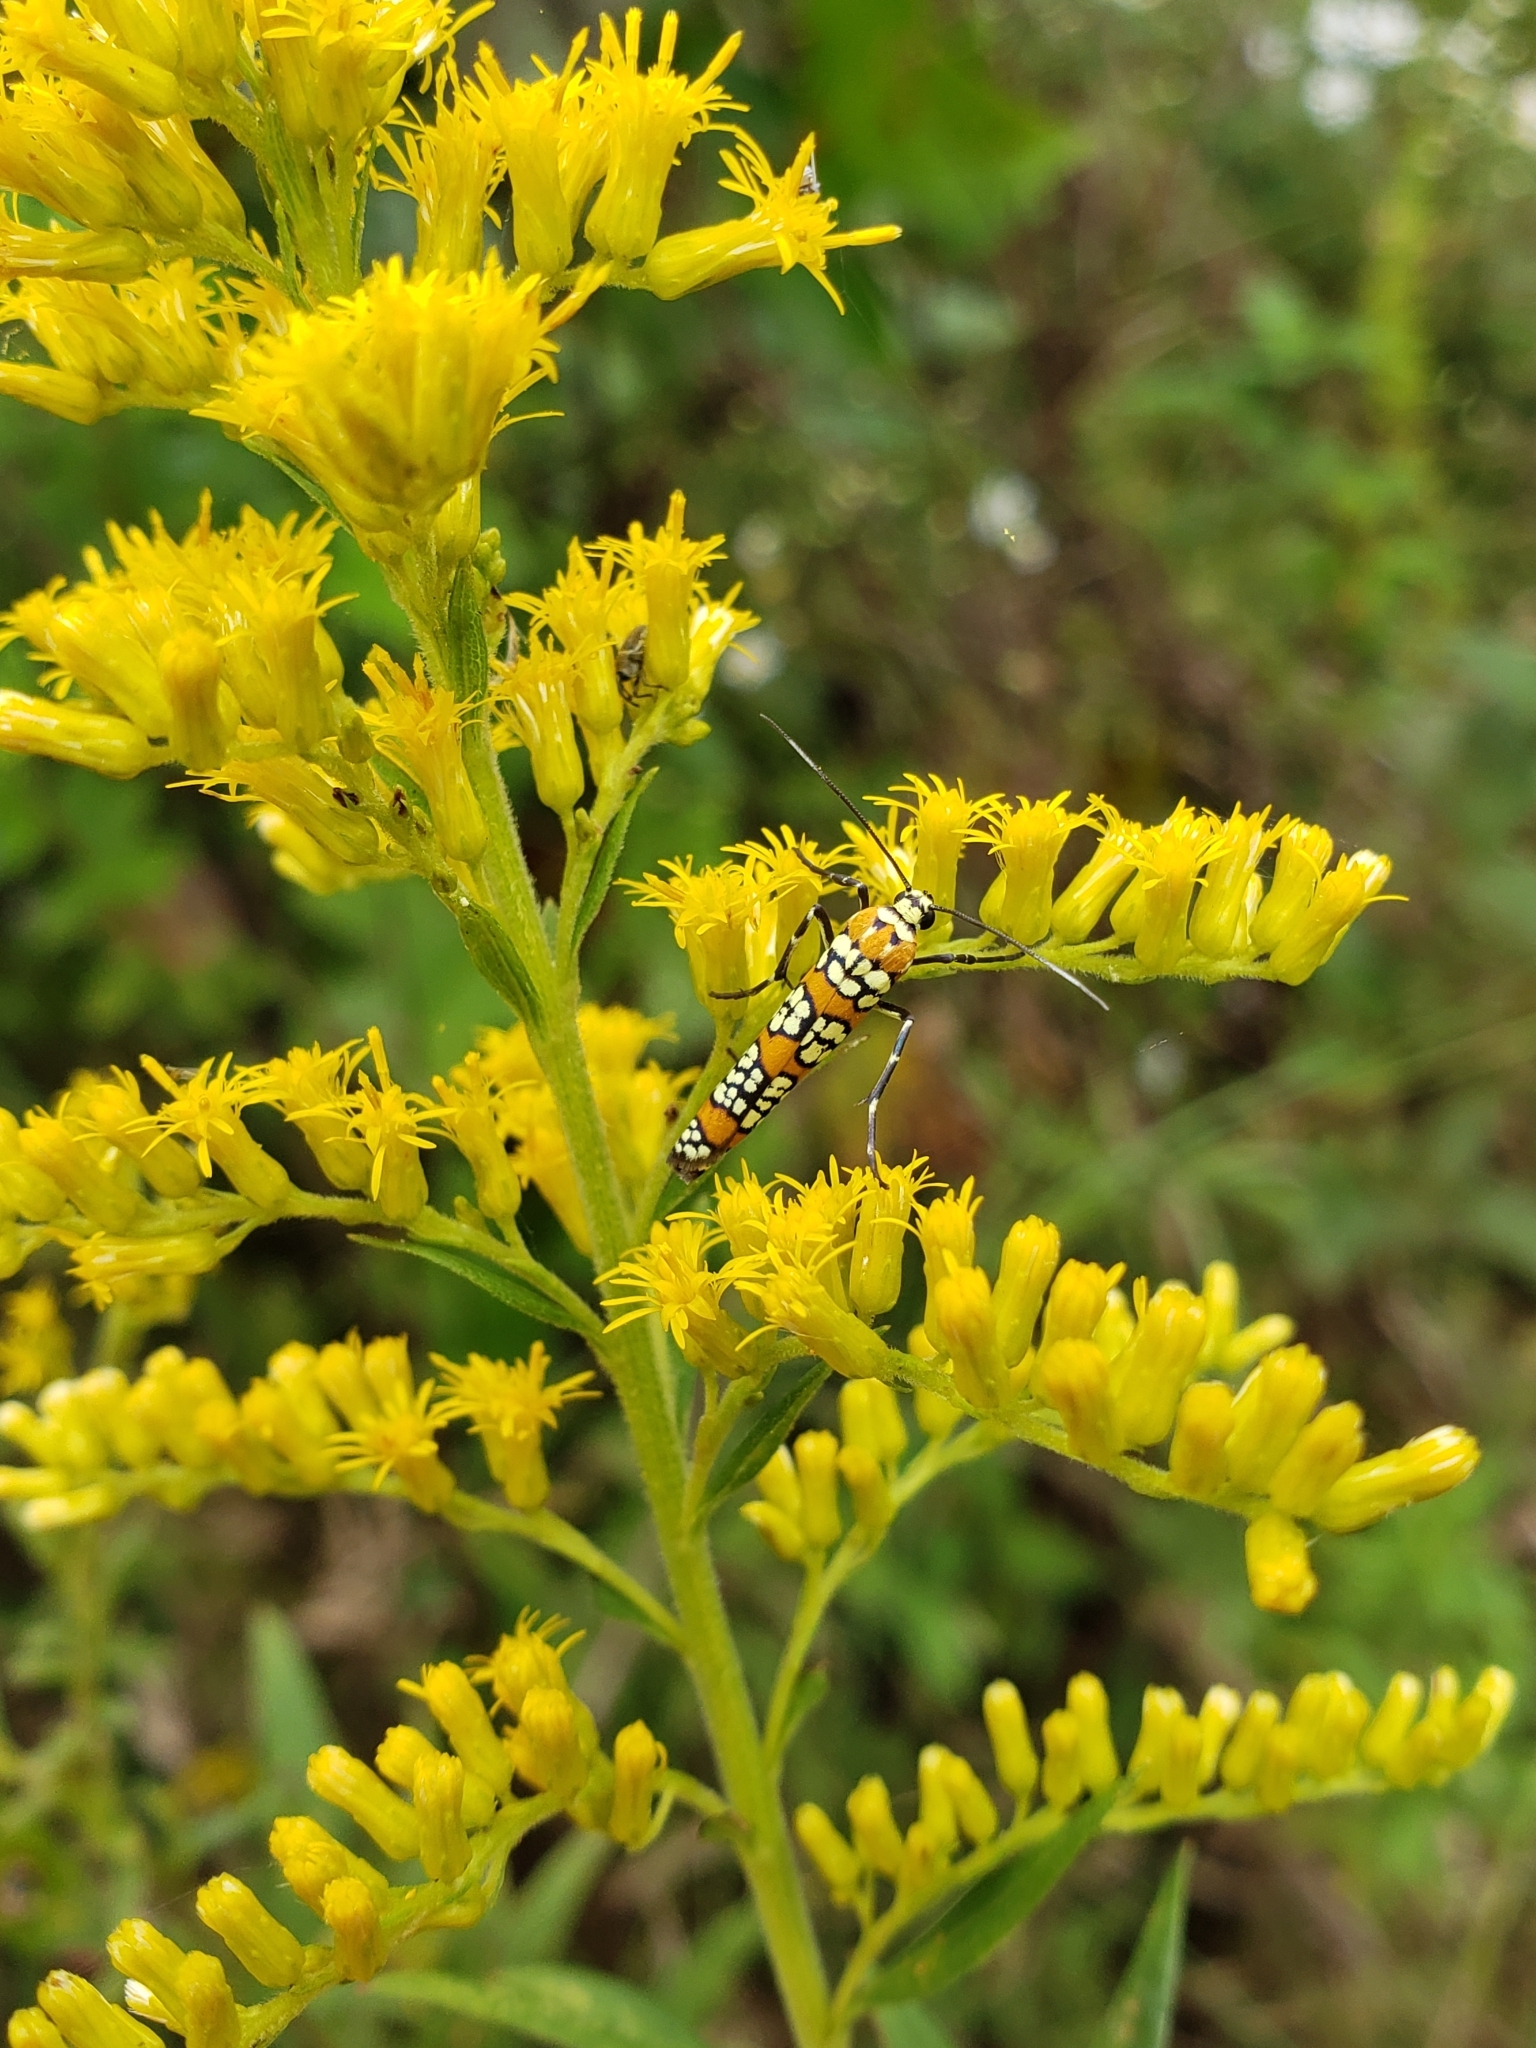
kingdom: Animalia
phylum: Arthropoda
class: Insecta
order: Lepidoptera
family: Attevidae
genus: Atteva
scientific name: Atteva punctella
